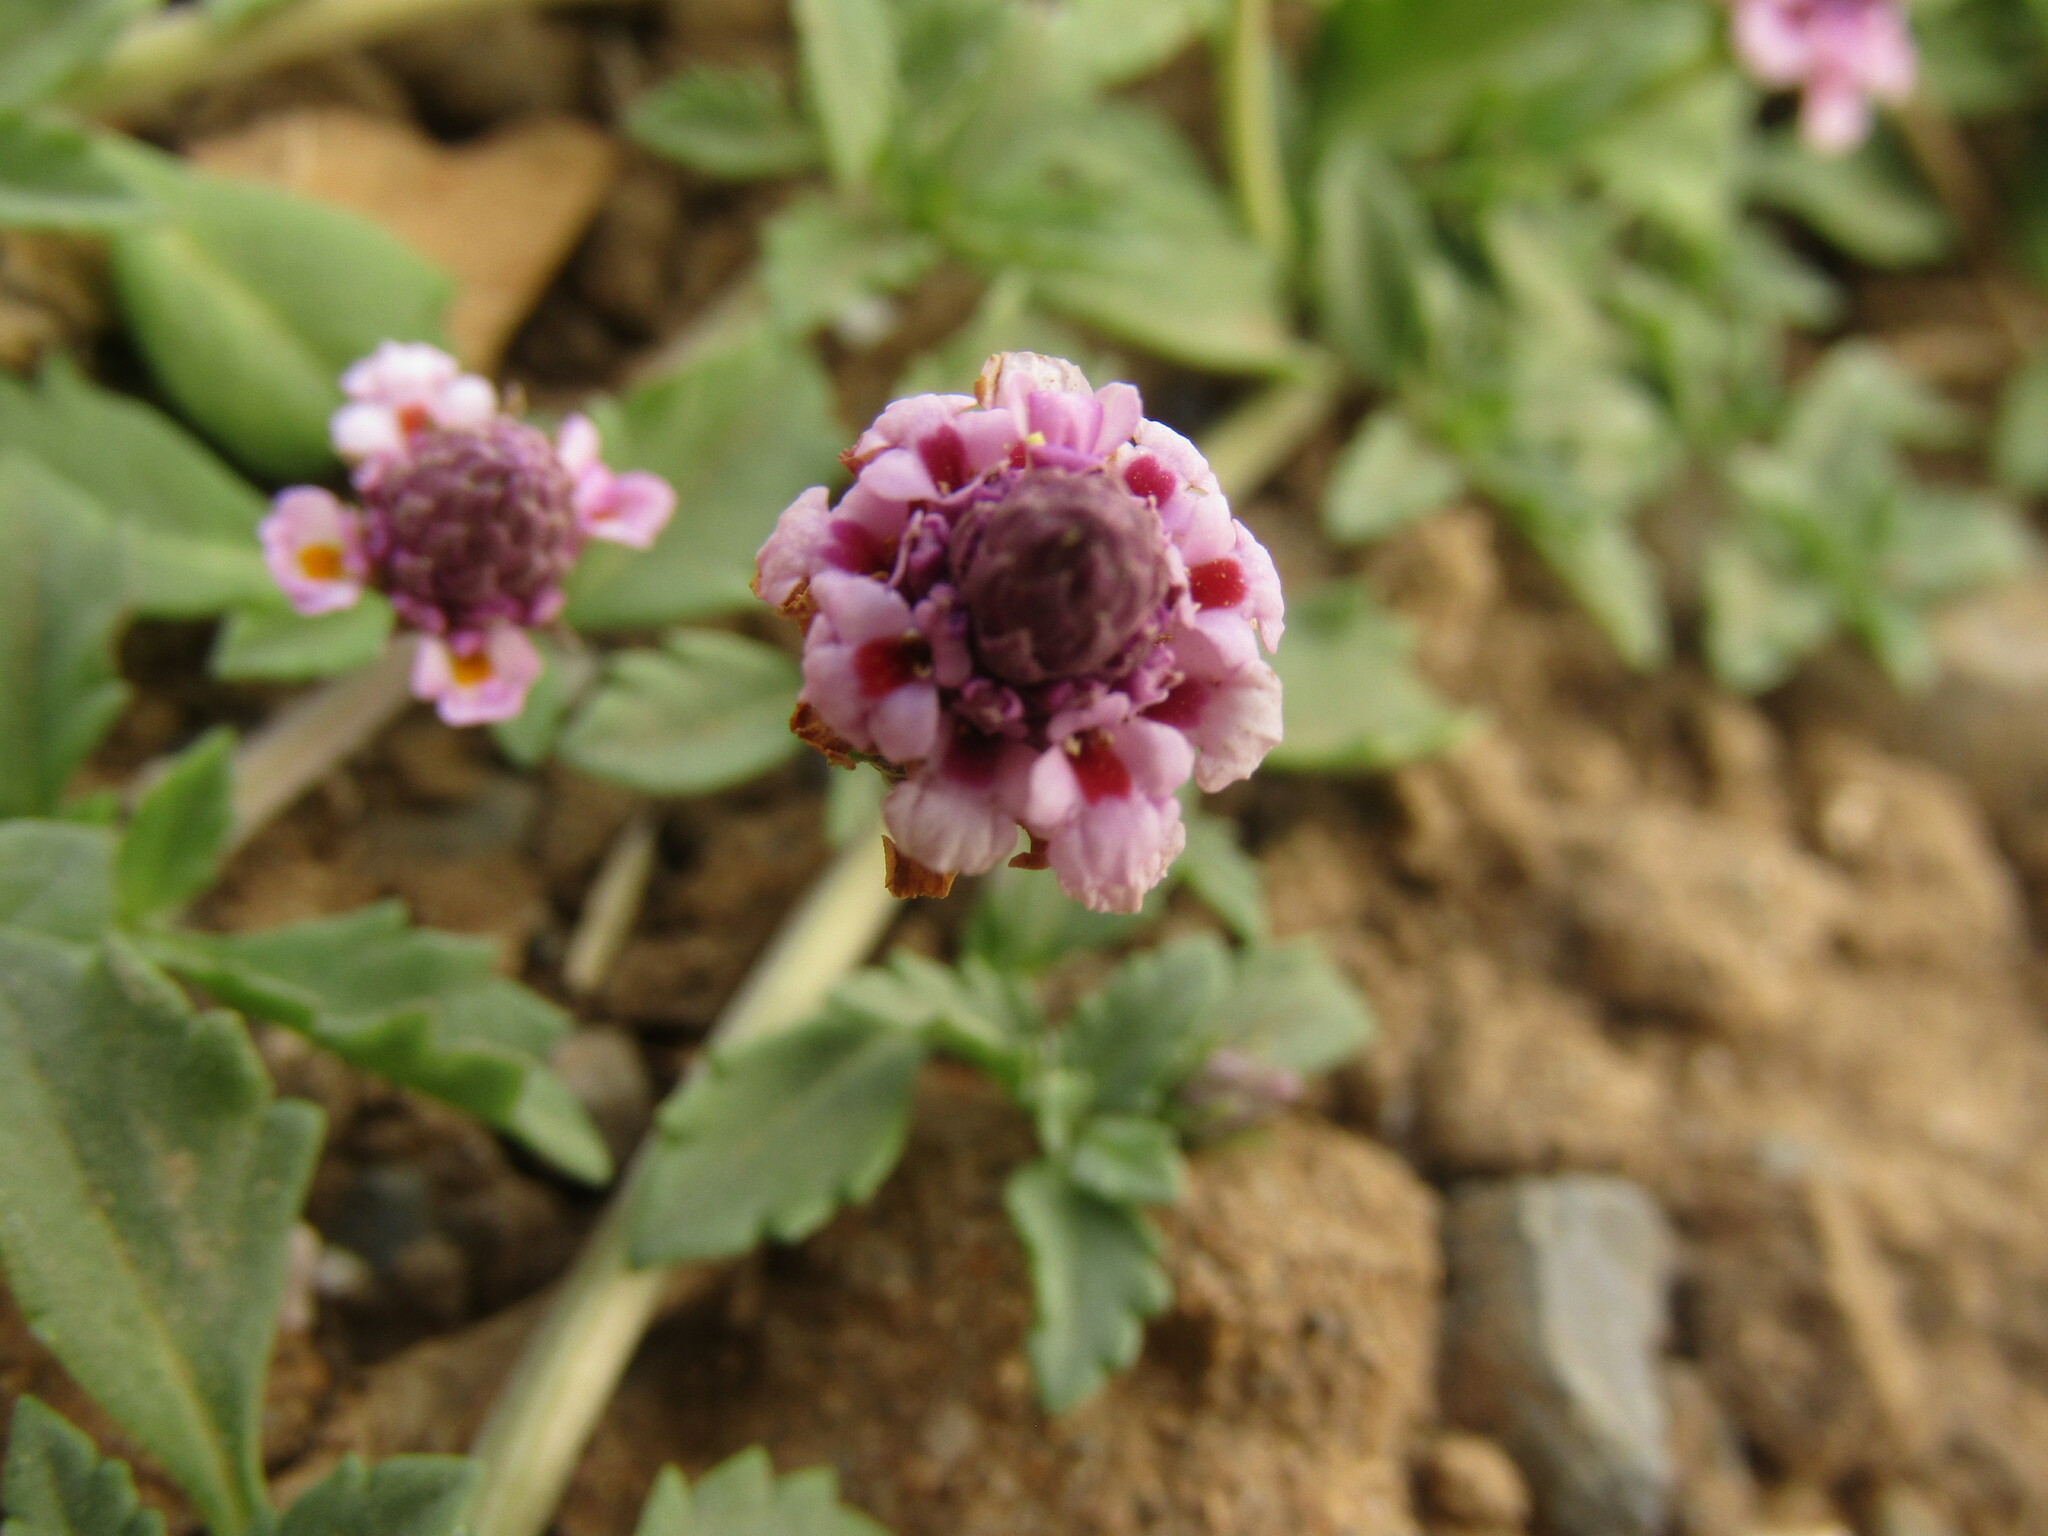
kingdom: Plantae
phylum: Tracheophyta
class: Magnoliopsida
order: Lamiales
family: Verbenaceae
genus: Phyla
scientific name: Phyla nodiflora
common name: Frogfruit
